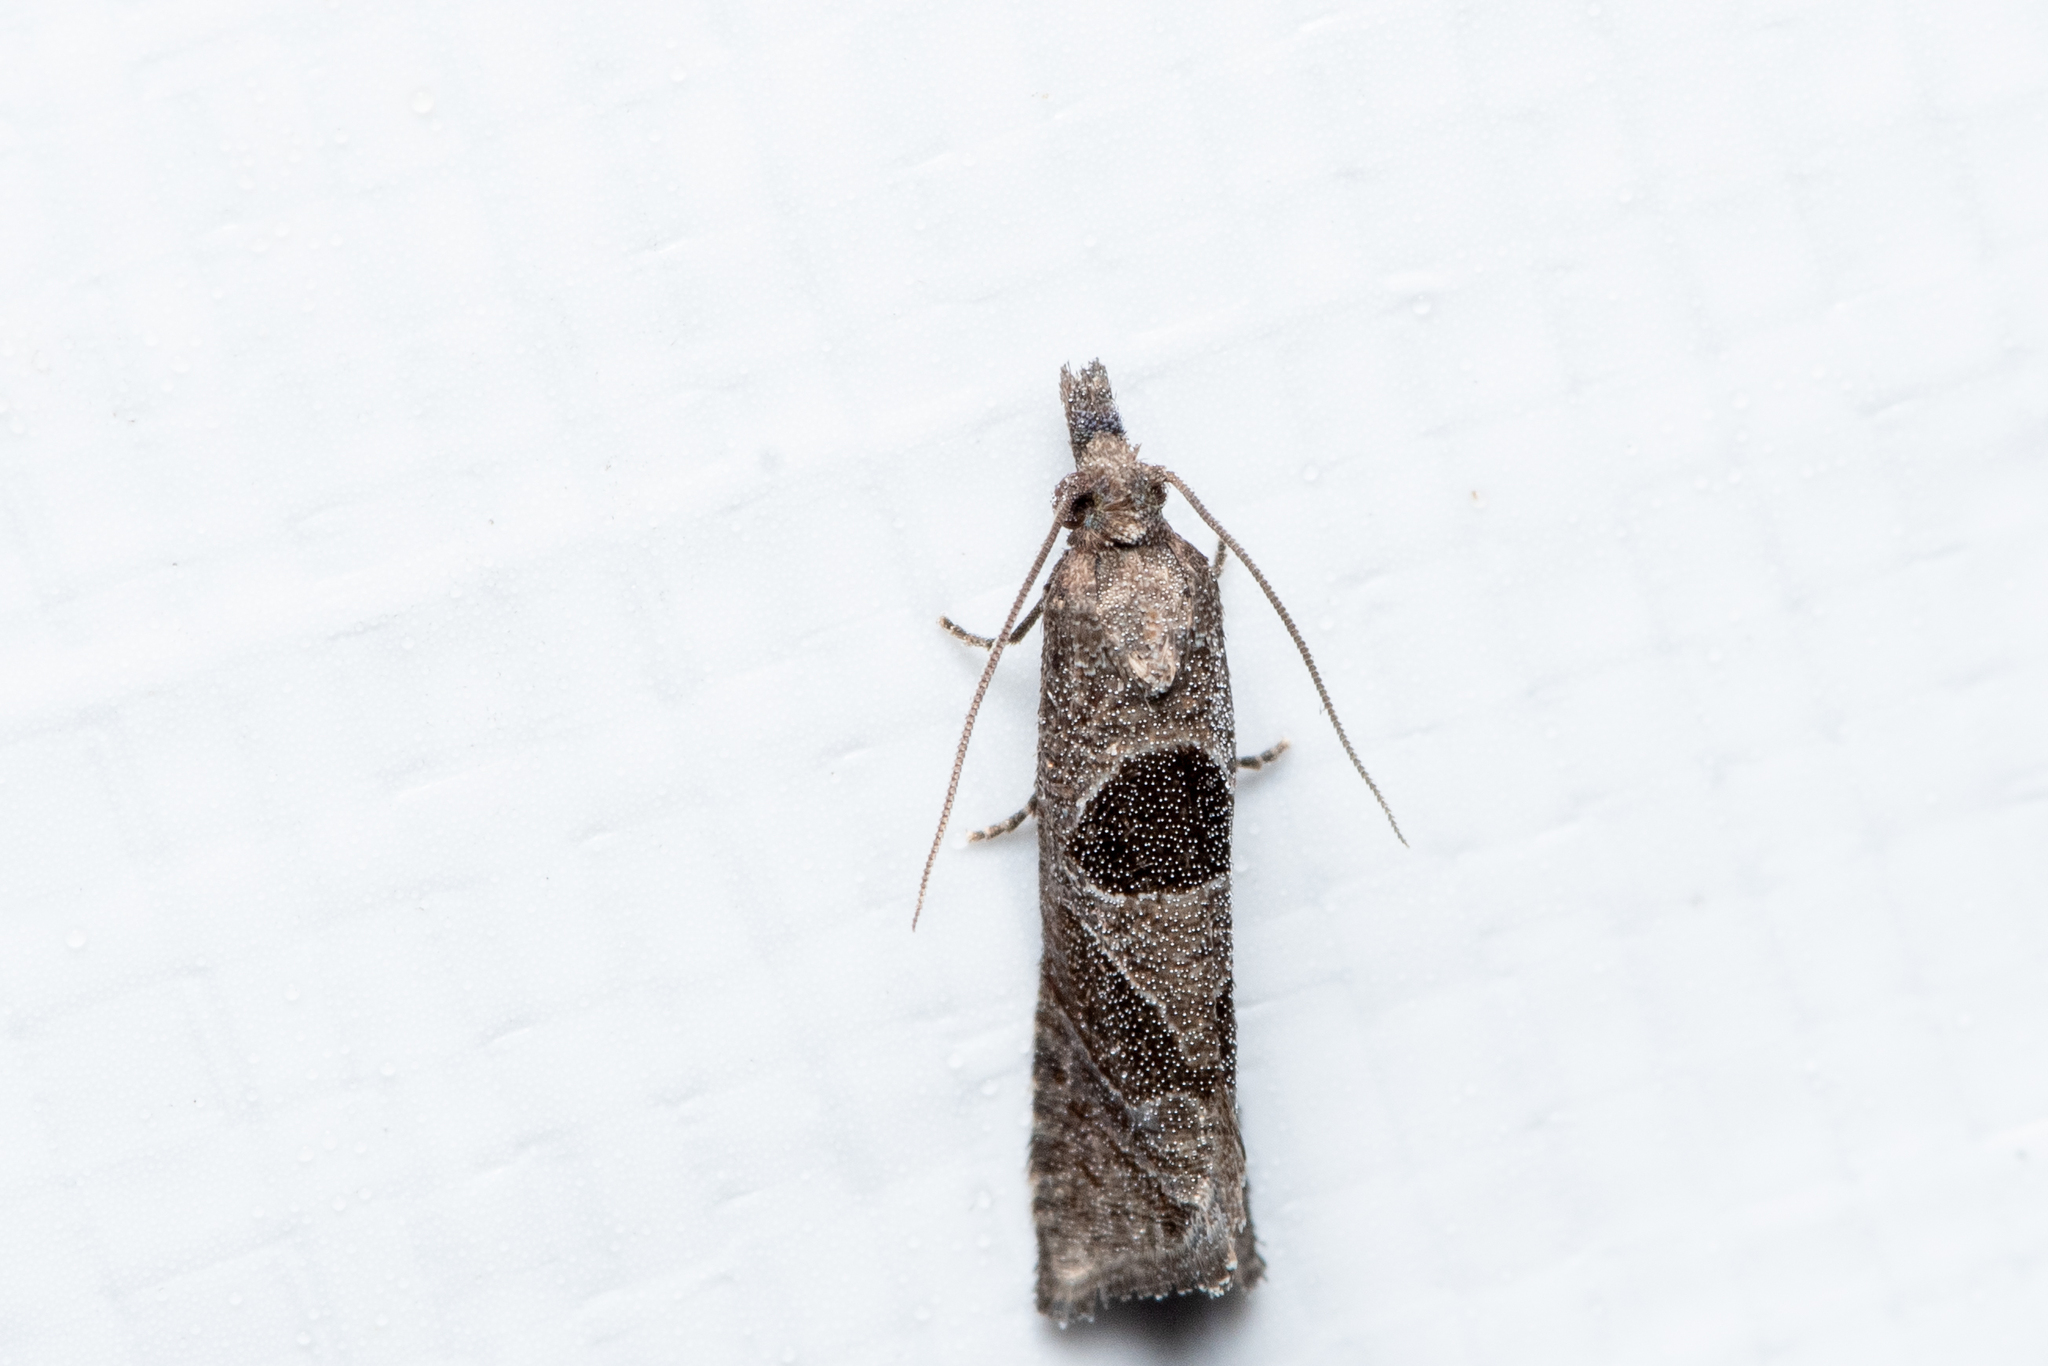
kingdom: Animalia
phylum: Arthropoda
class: Insecta
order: Lepidoptera
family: Tortricidae
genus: Pelochrista
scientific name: Pelochrista dorsisignatana
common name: Triangle-backed pelochrista moth
